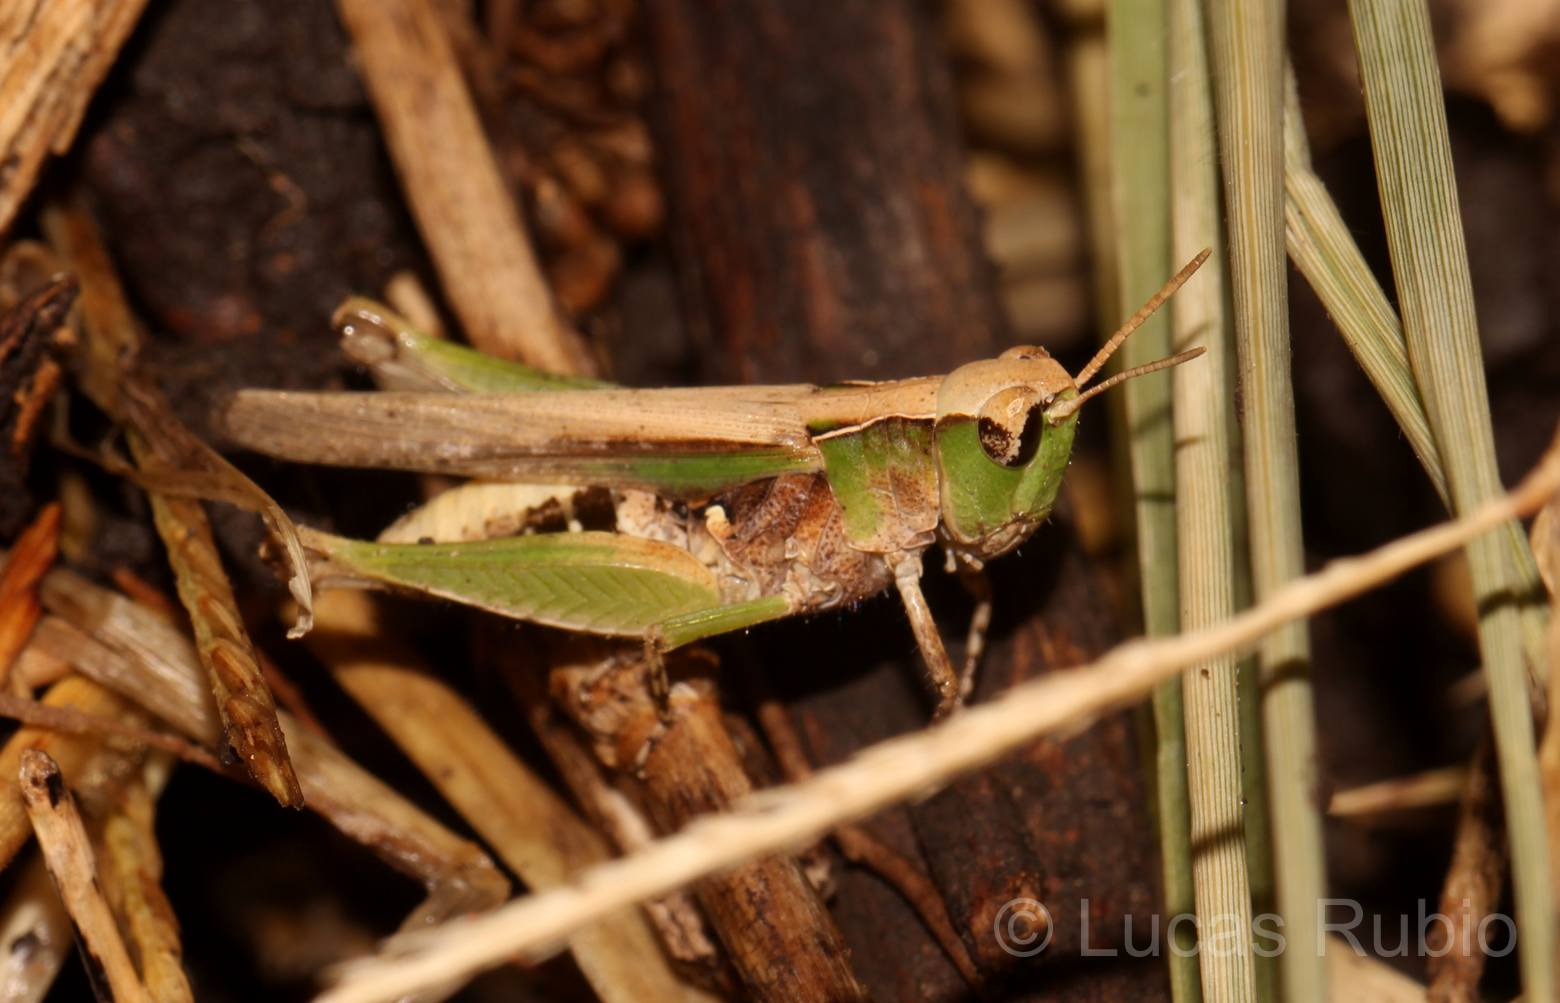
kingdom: Animalia
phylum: Arthropoda
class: Insecta
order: Orthoptera
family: Acrididae
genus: Orphulella
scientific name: Orphulella punctata
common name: Slant-faced grasshopper
